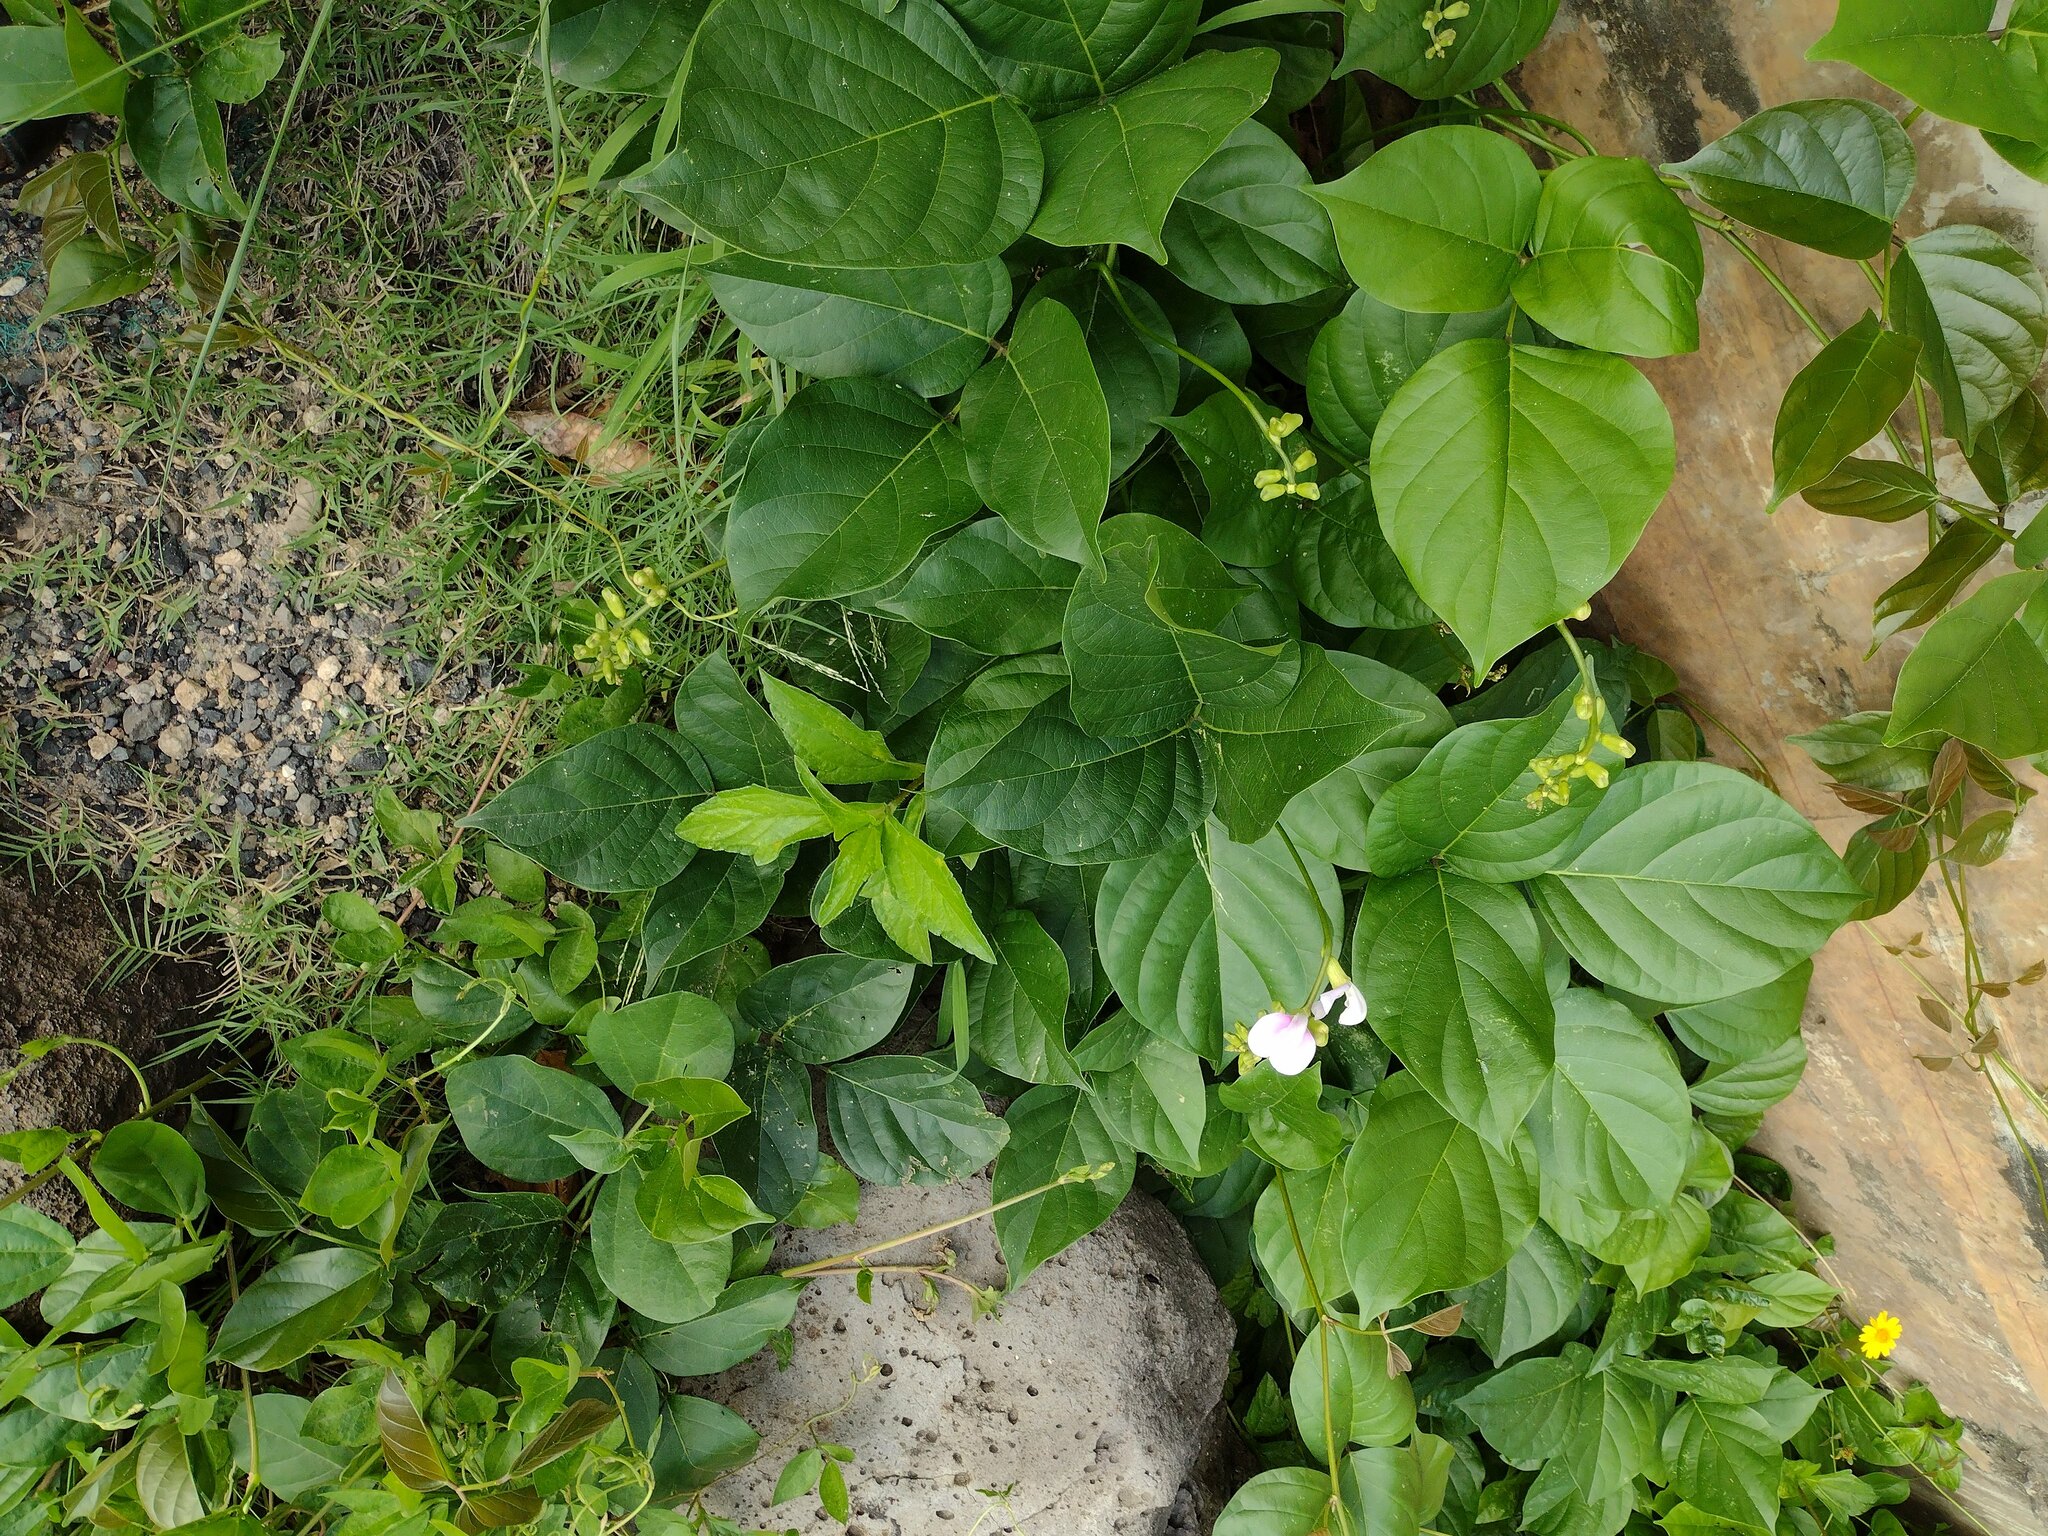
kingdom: Plantae
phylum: Tracheophyta
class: Magnoliopsida
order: Fabales
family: Fabaceae
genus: Canavalia
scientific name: Canavalia cathartica
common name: Maunaloa
